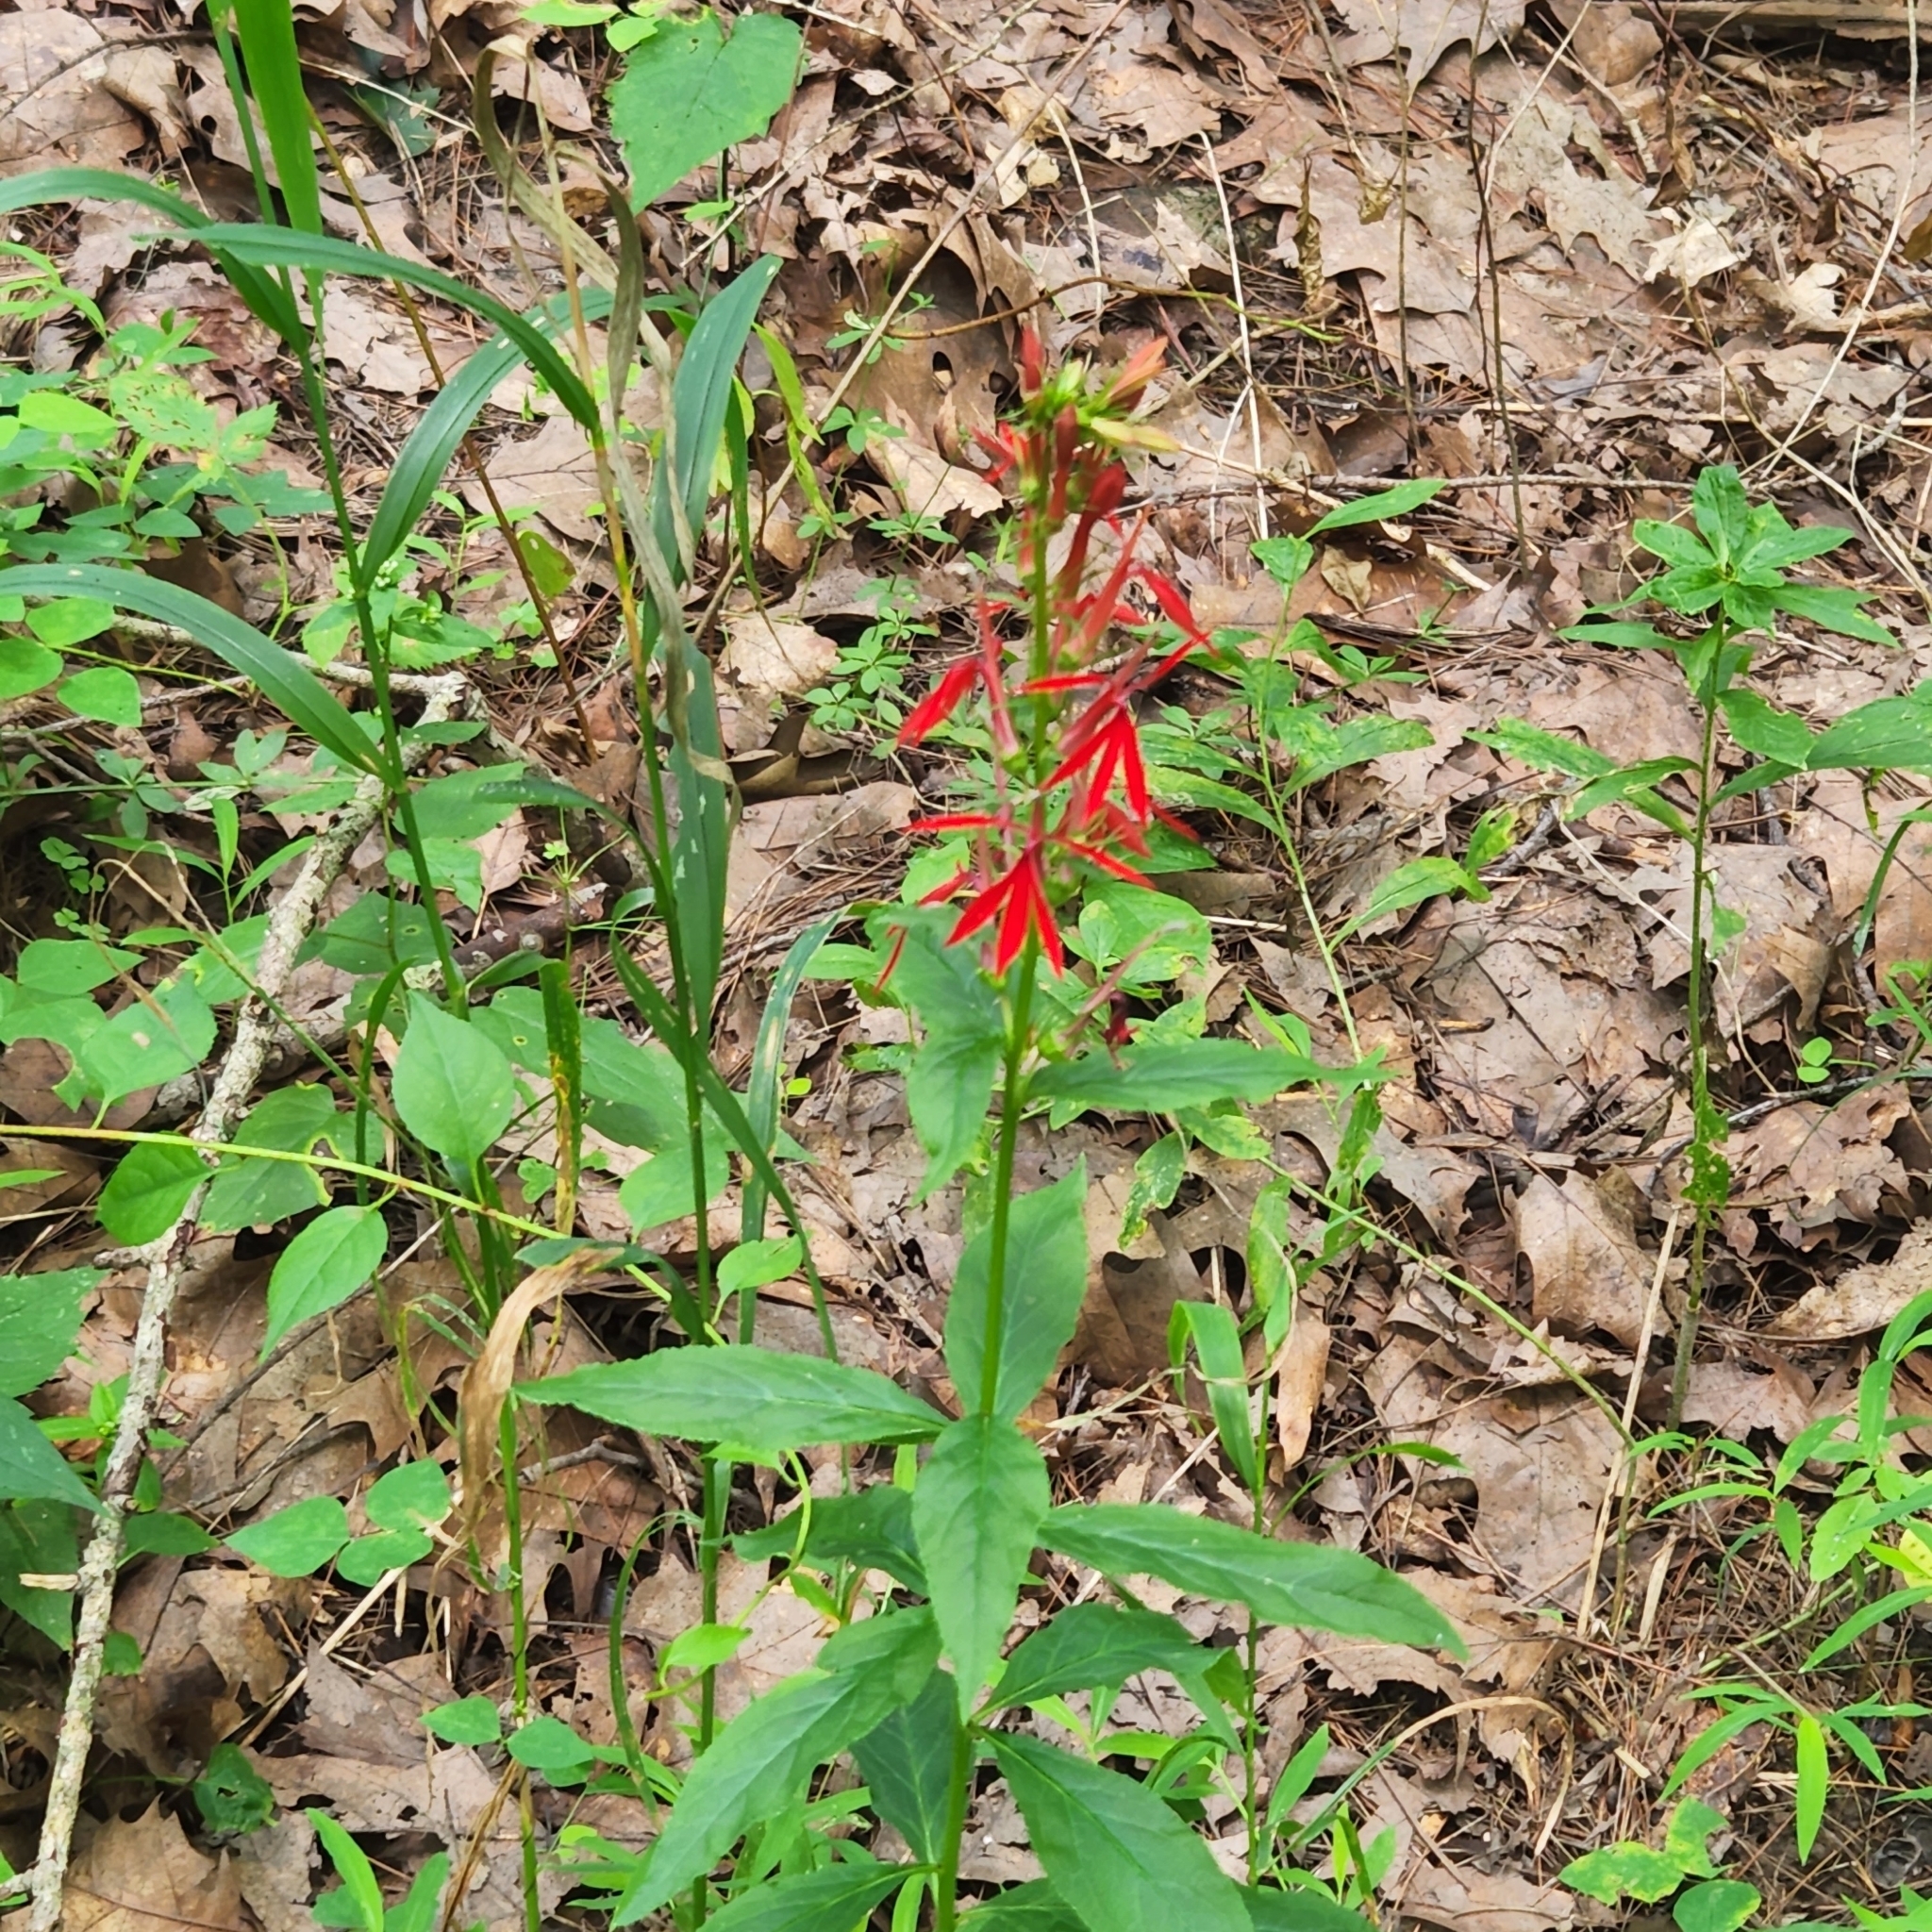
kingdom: Plantae
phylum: Tracheophyta
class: Magnoliopsida
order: Asterales
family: Campanulaceae
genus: Lobelia
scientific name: Lobelia cardinalis
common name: Cardinal flower
